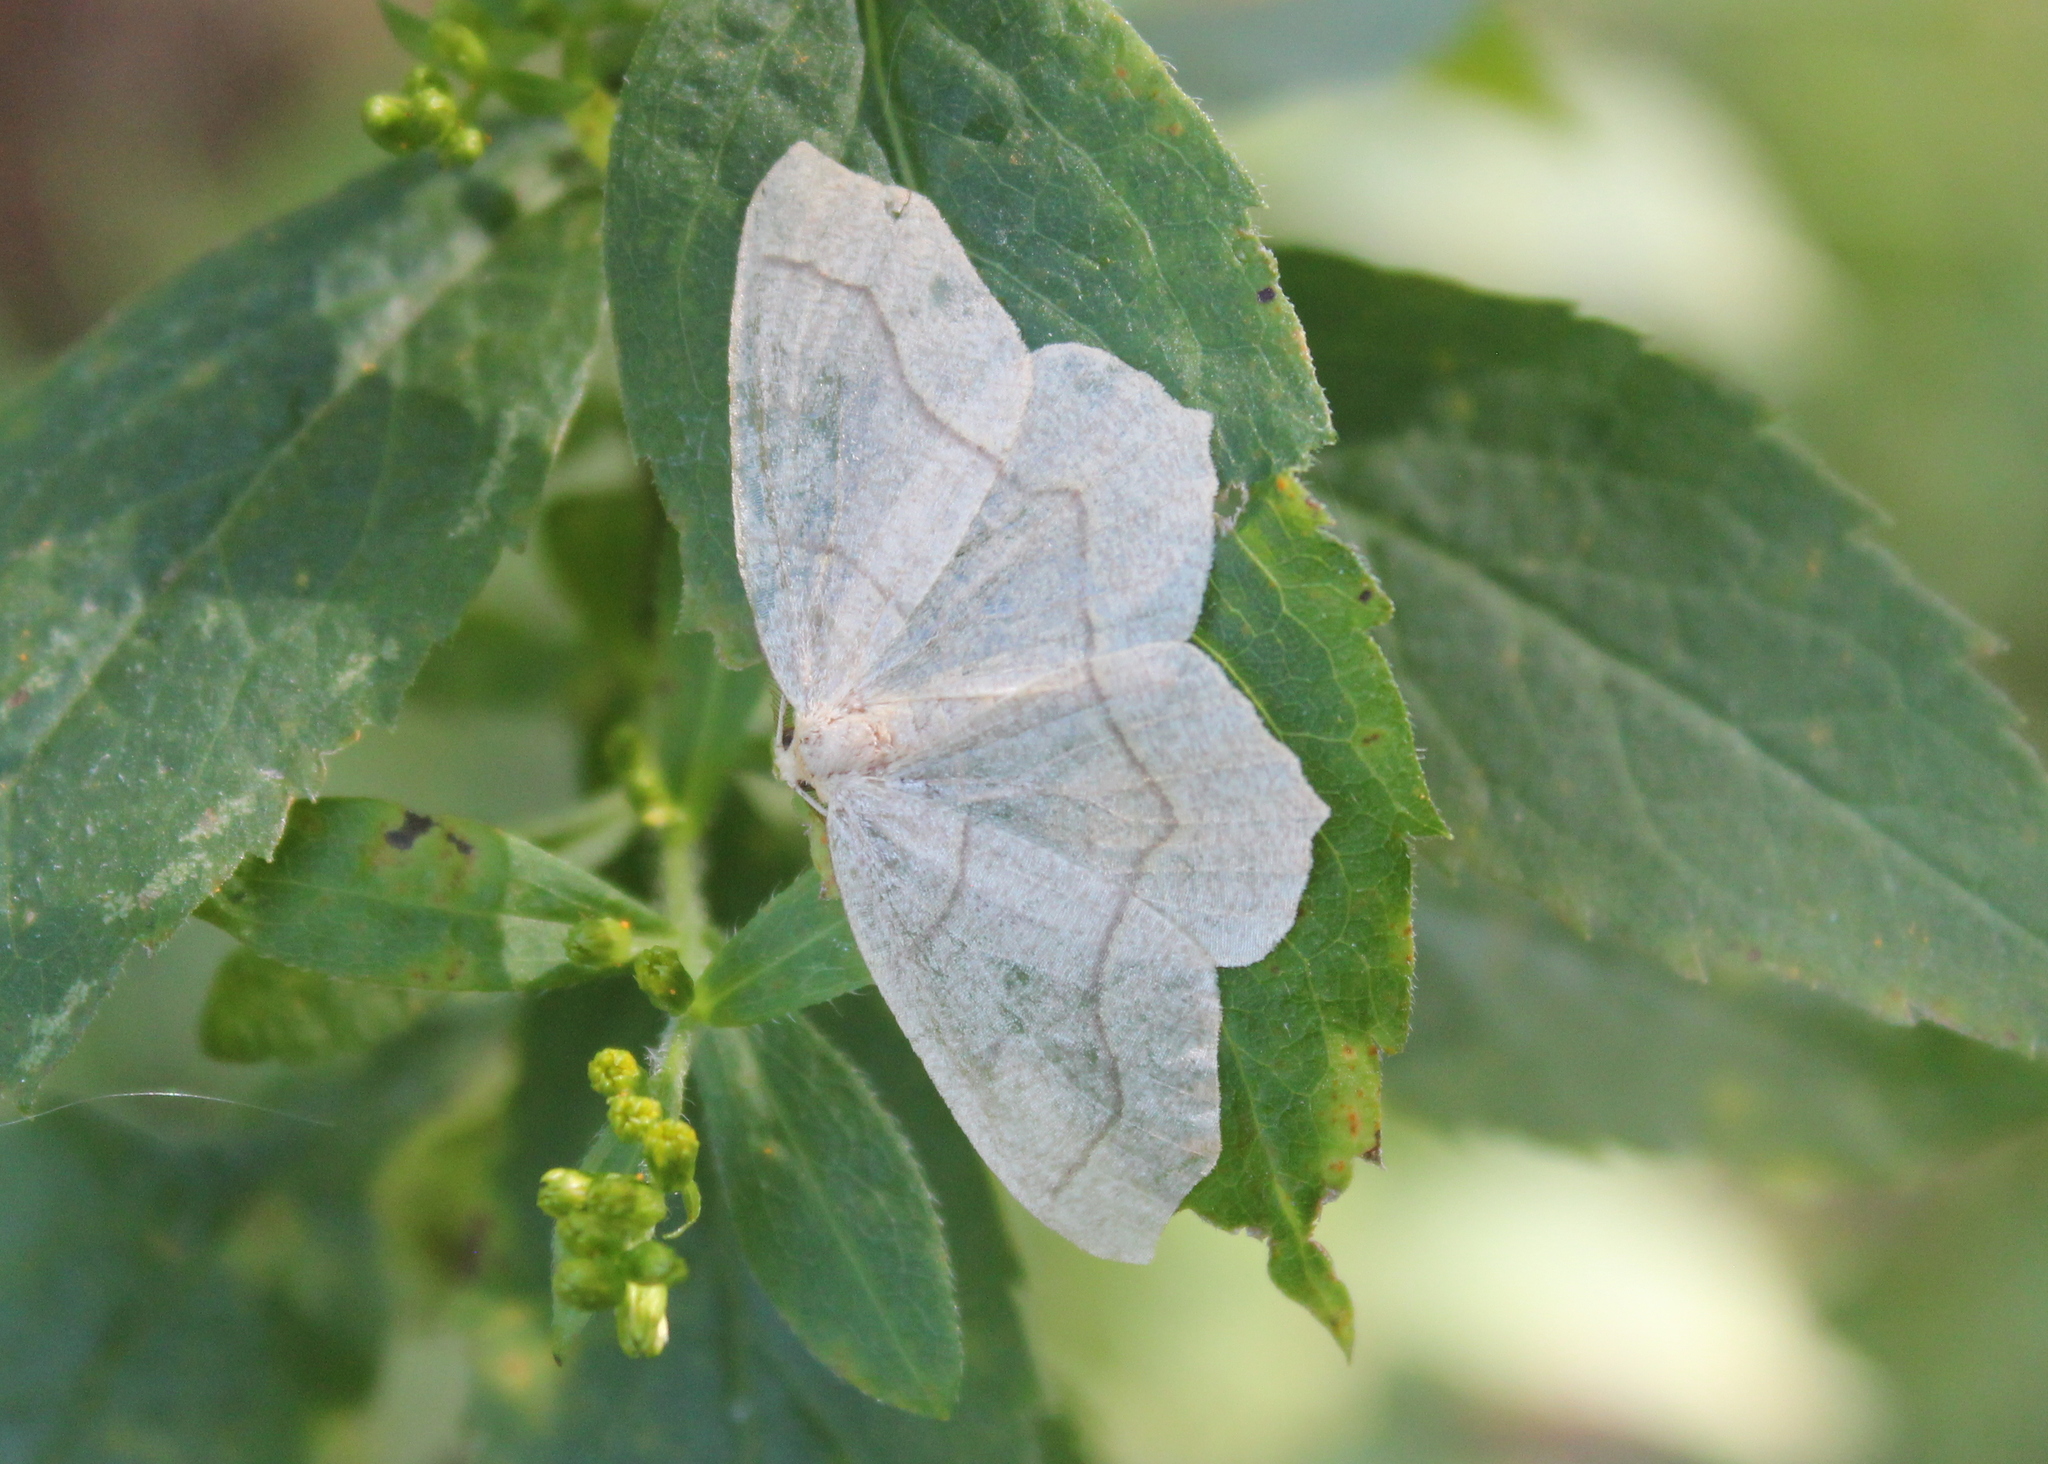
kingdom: Animalia
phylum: Arthropoda
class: Insecta
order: Lepidoptera
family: Geometridae
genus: Lambdina
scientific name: Lambdina fiscellaria
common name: Hemlock looper
